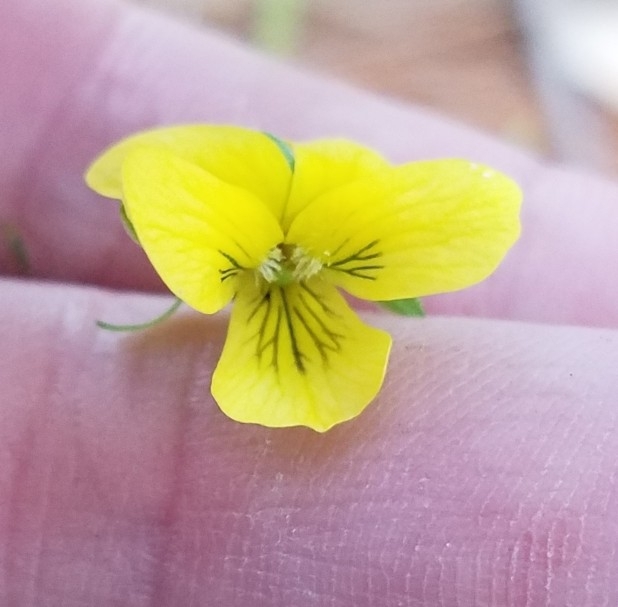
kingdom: Plantae
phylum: Tracheophyta
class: Magnoliopsida
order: Malpighiales
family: Violaceae
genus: Viola
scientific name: Viola eriocarpa
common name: Smooth yellow violet
